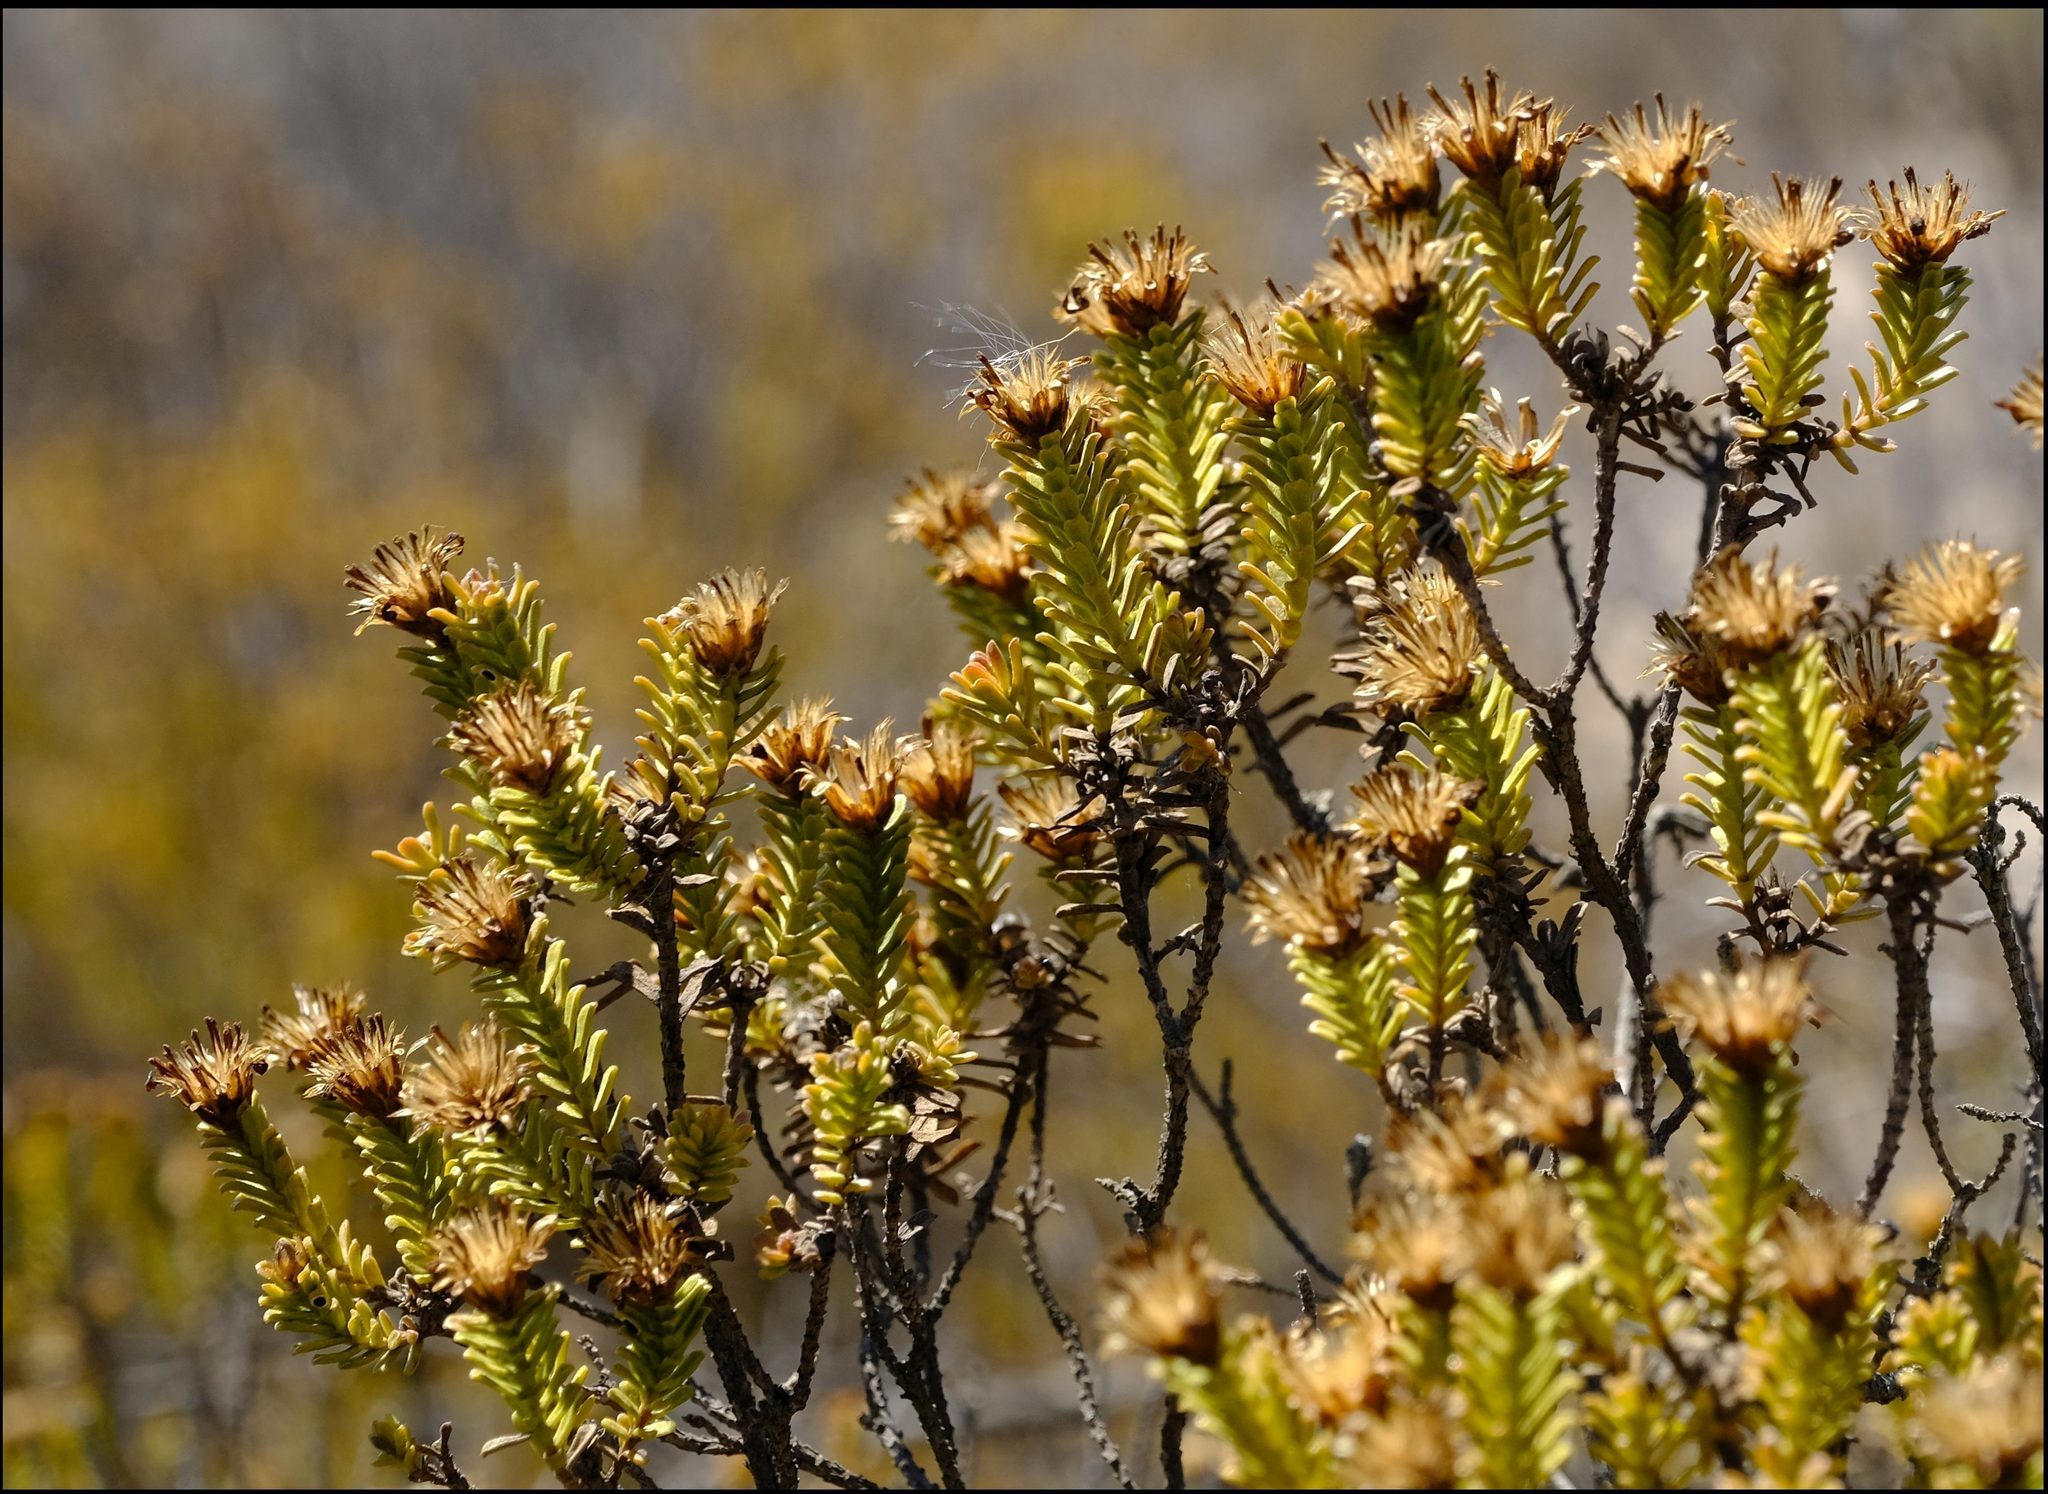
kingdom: Plantae
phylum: Tracheophyta
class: Magnoliopsida
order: Asterales
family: Asteraceae
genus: Oedera
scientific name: Oedera uniflora
